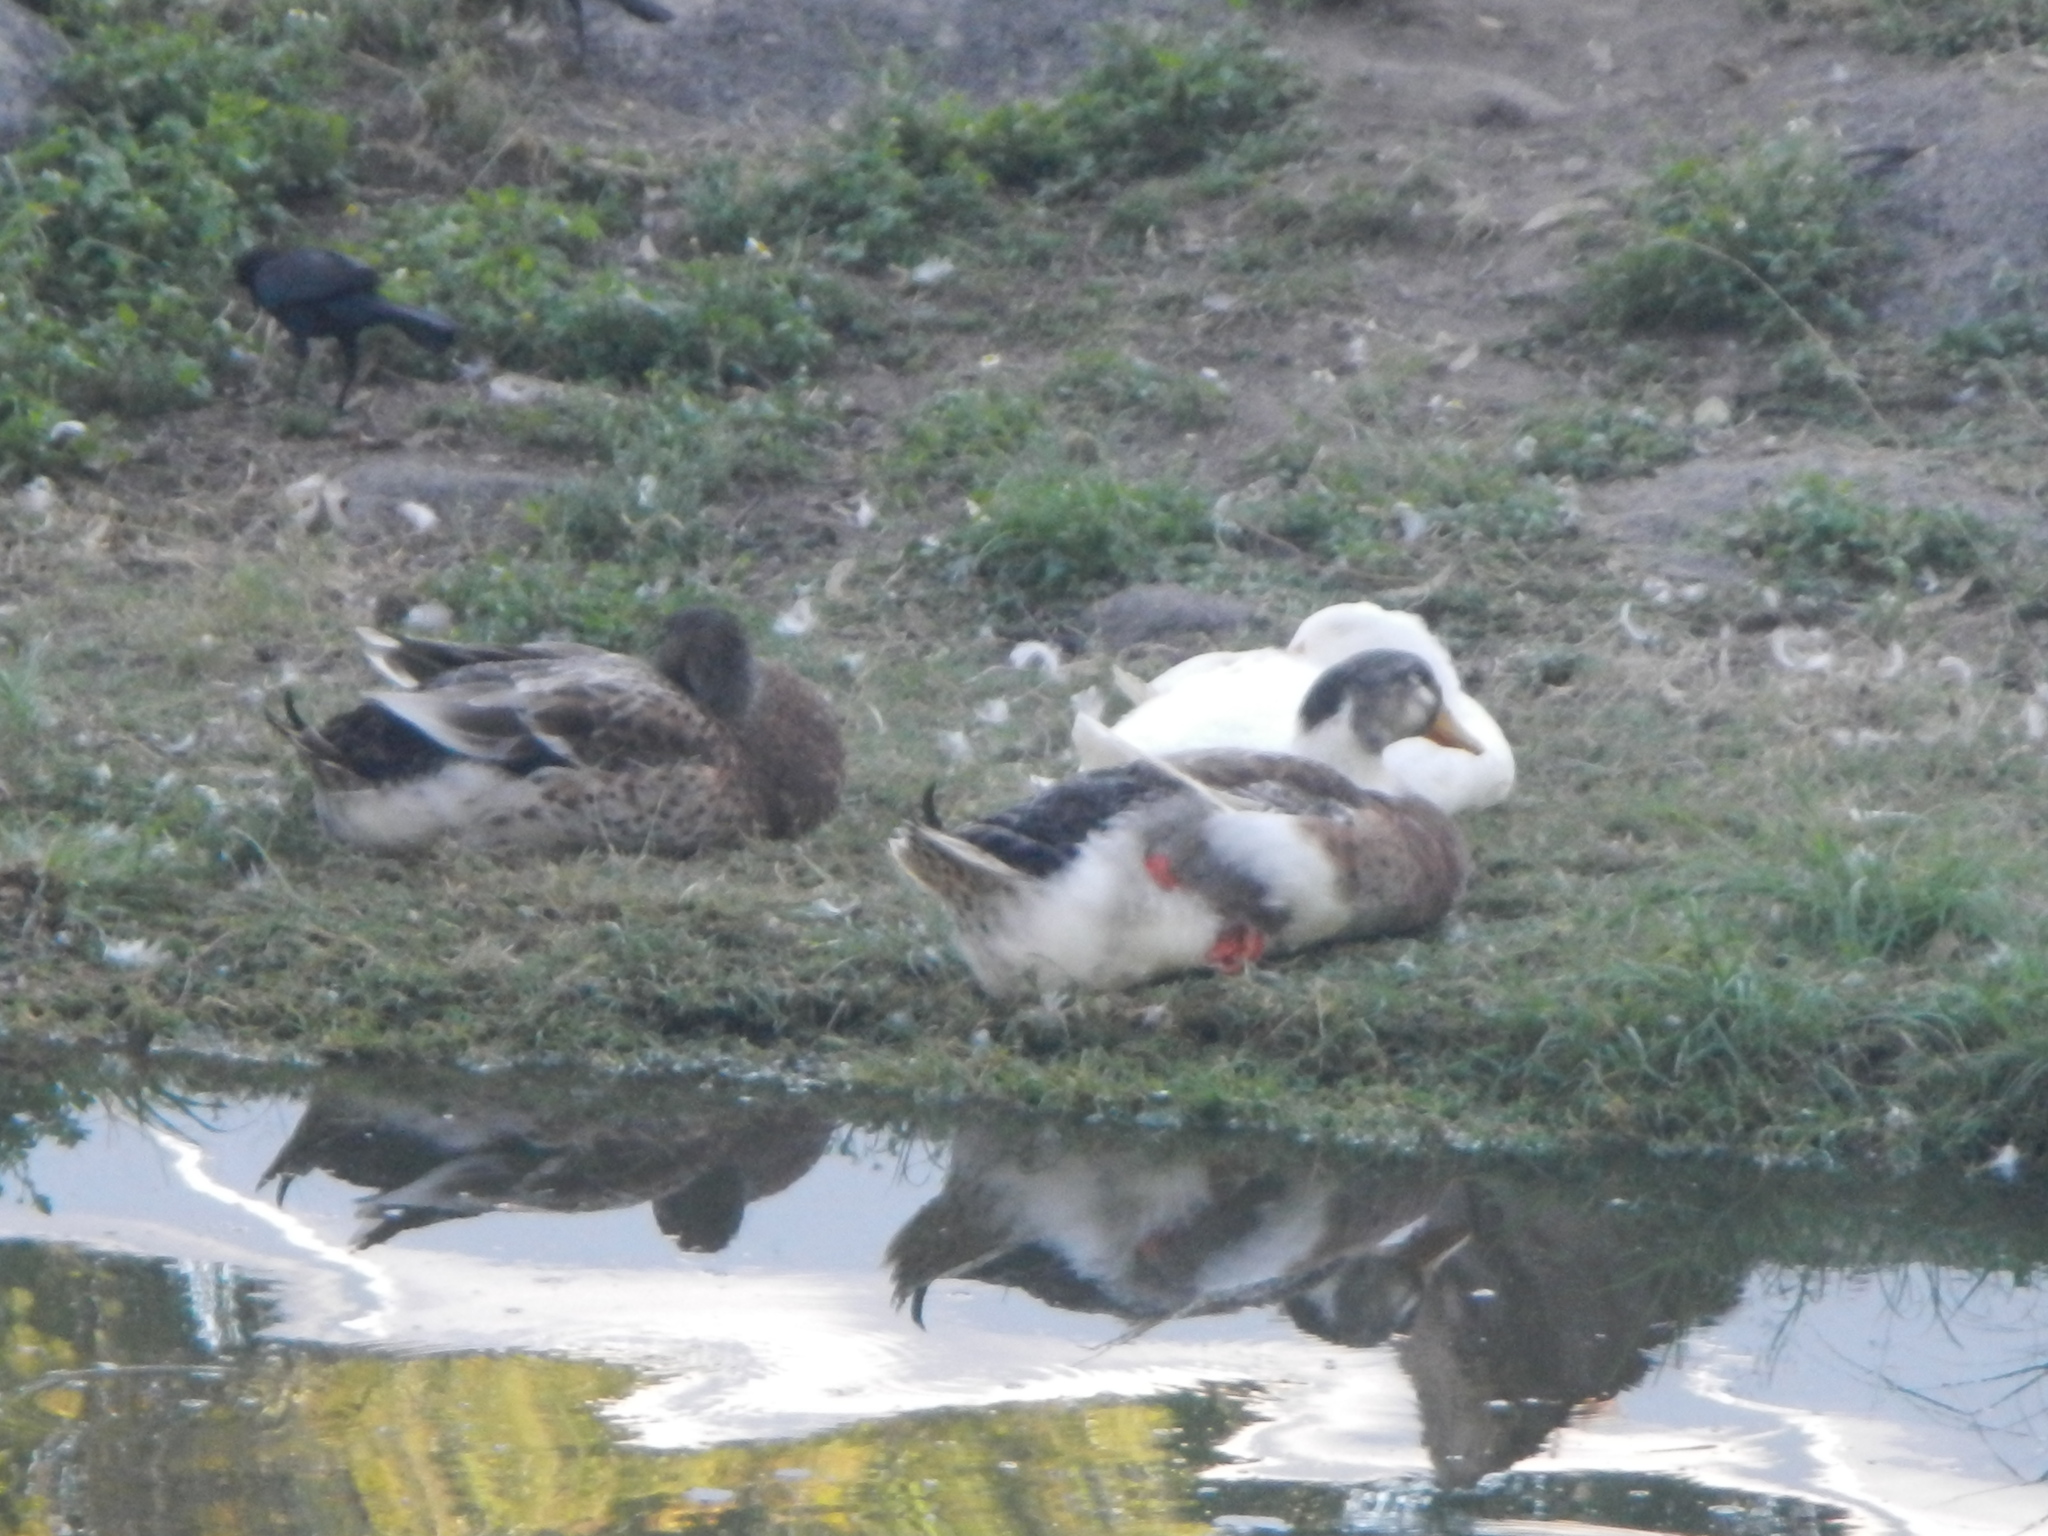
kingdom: Animalia
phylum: Chordata
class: Aves
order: Anseriformes
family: Anatidae
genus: Anas
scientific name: Anas platyrhynchos
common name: Mallard
